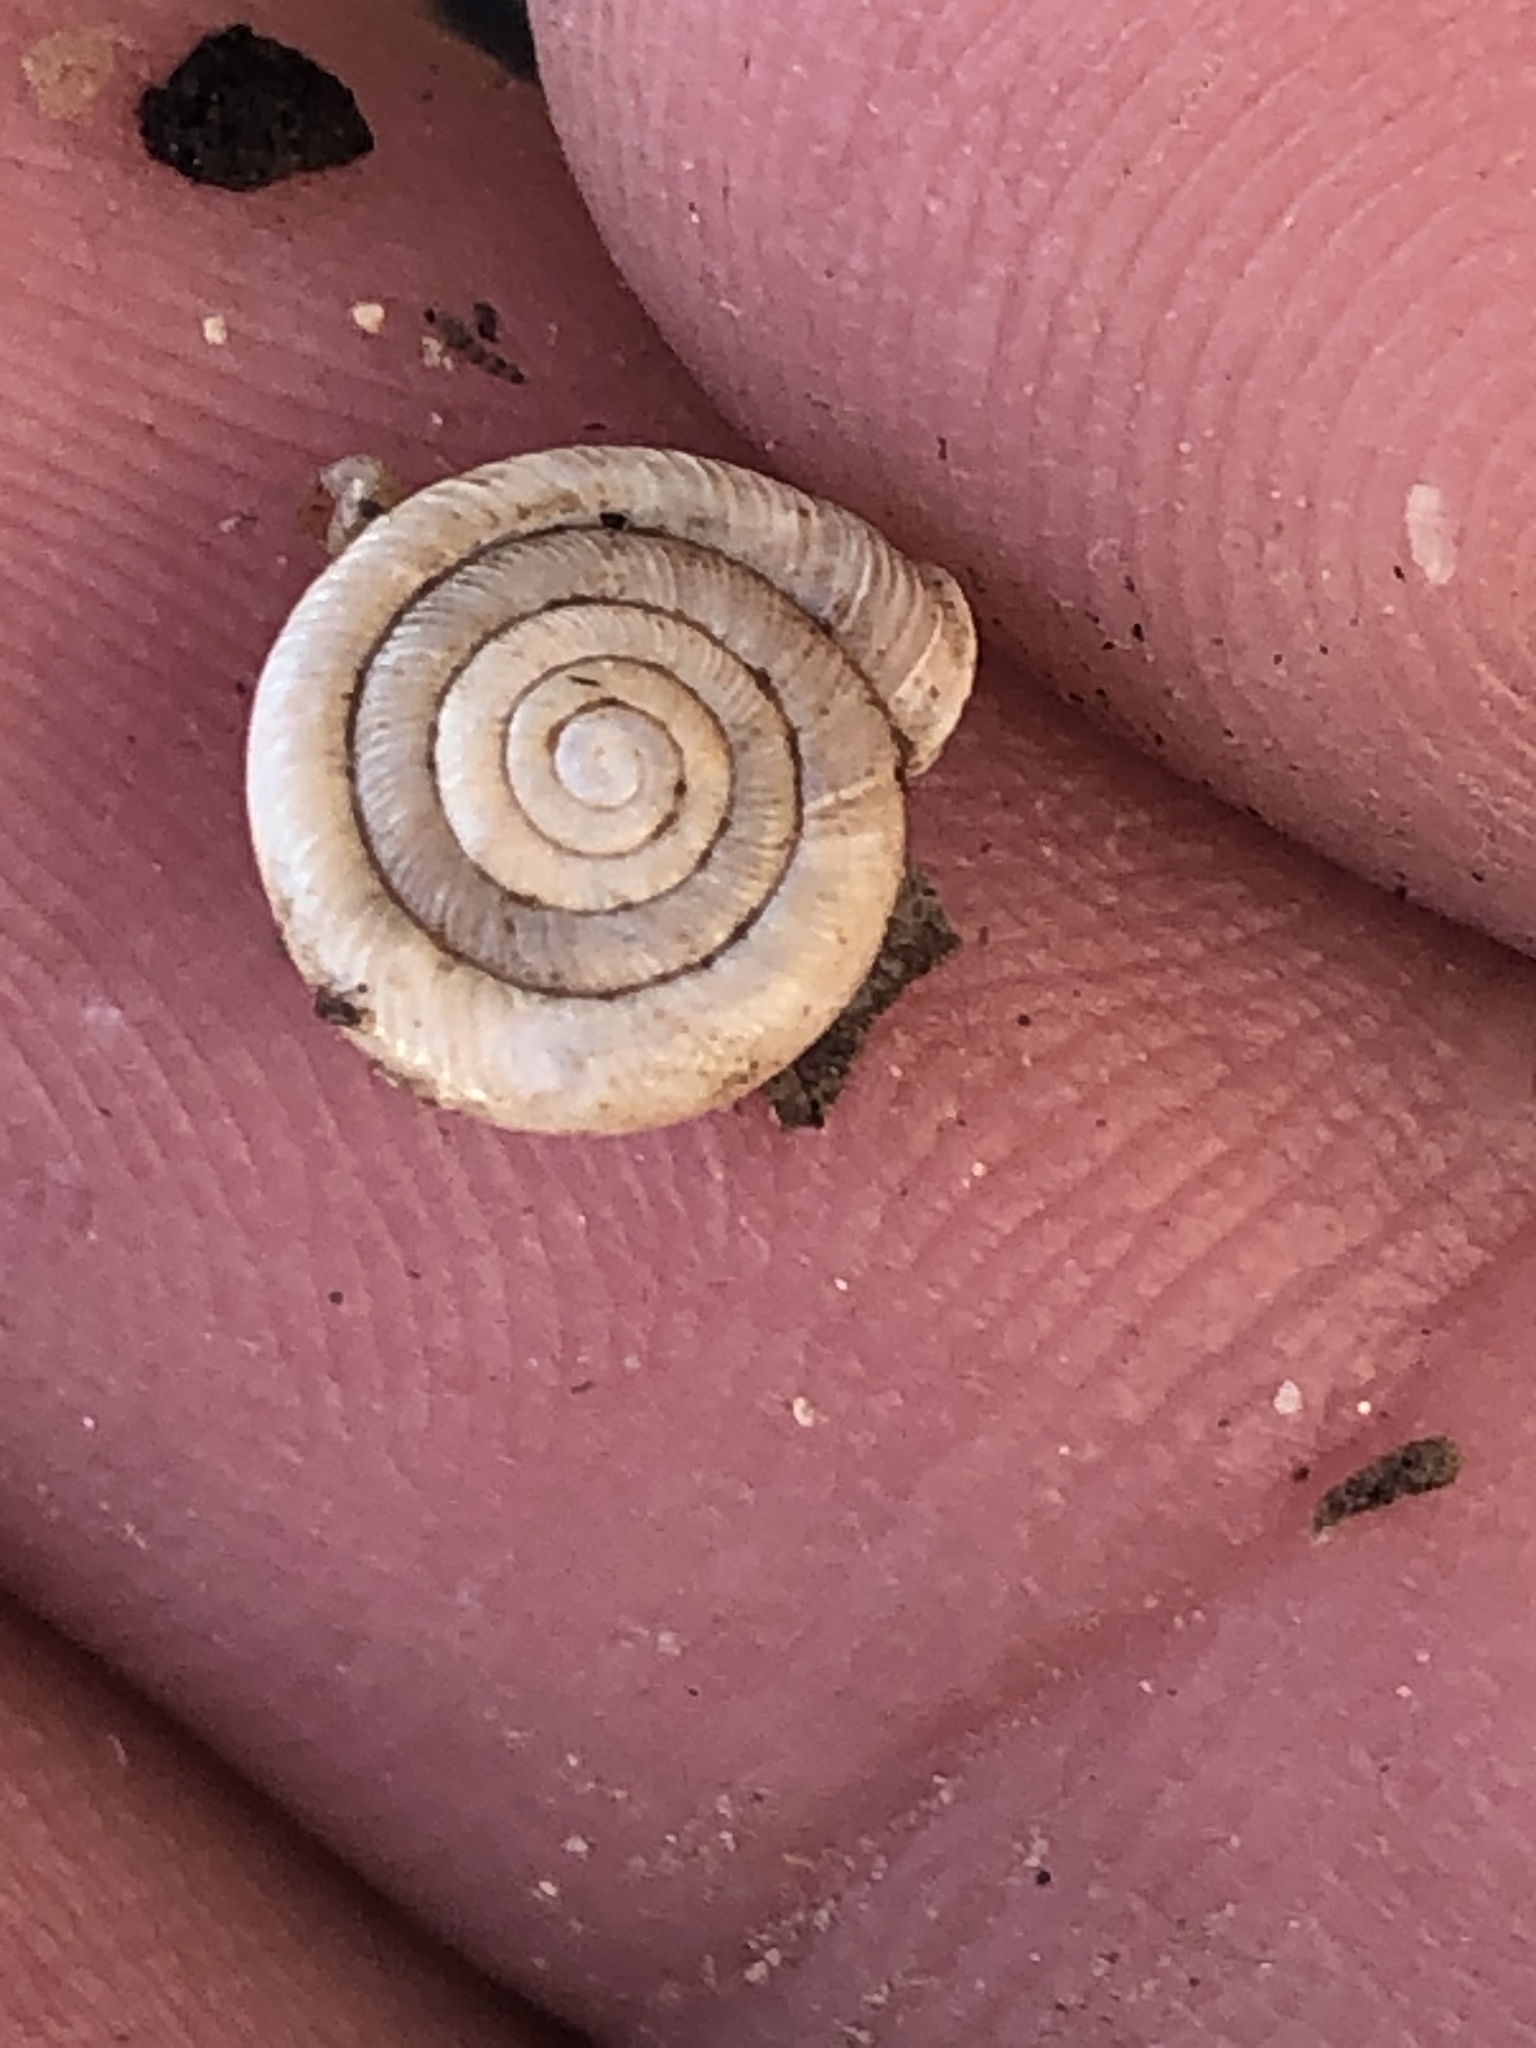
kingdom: Animalia
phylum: Mollusca
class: Gastropoda
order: Stylommatophora
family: Polygyridae
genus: Polygyra
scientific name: Polygyra cereolus
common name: Southern flatcone snail
